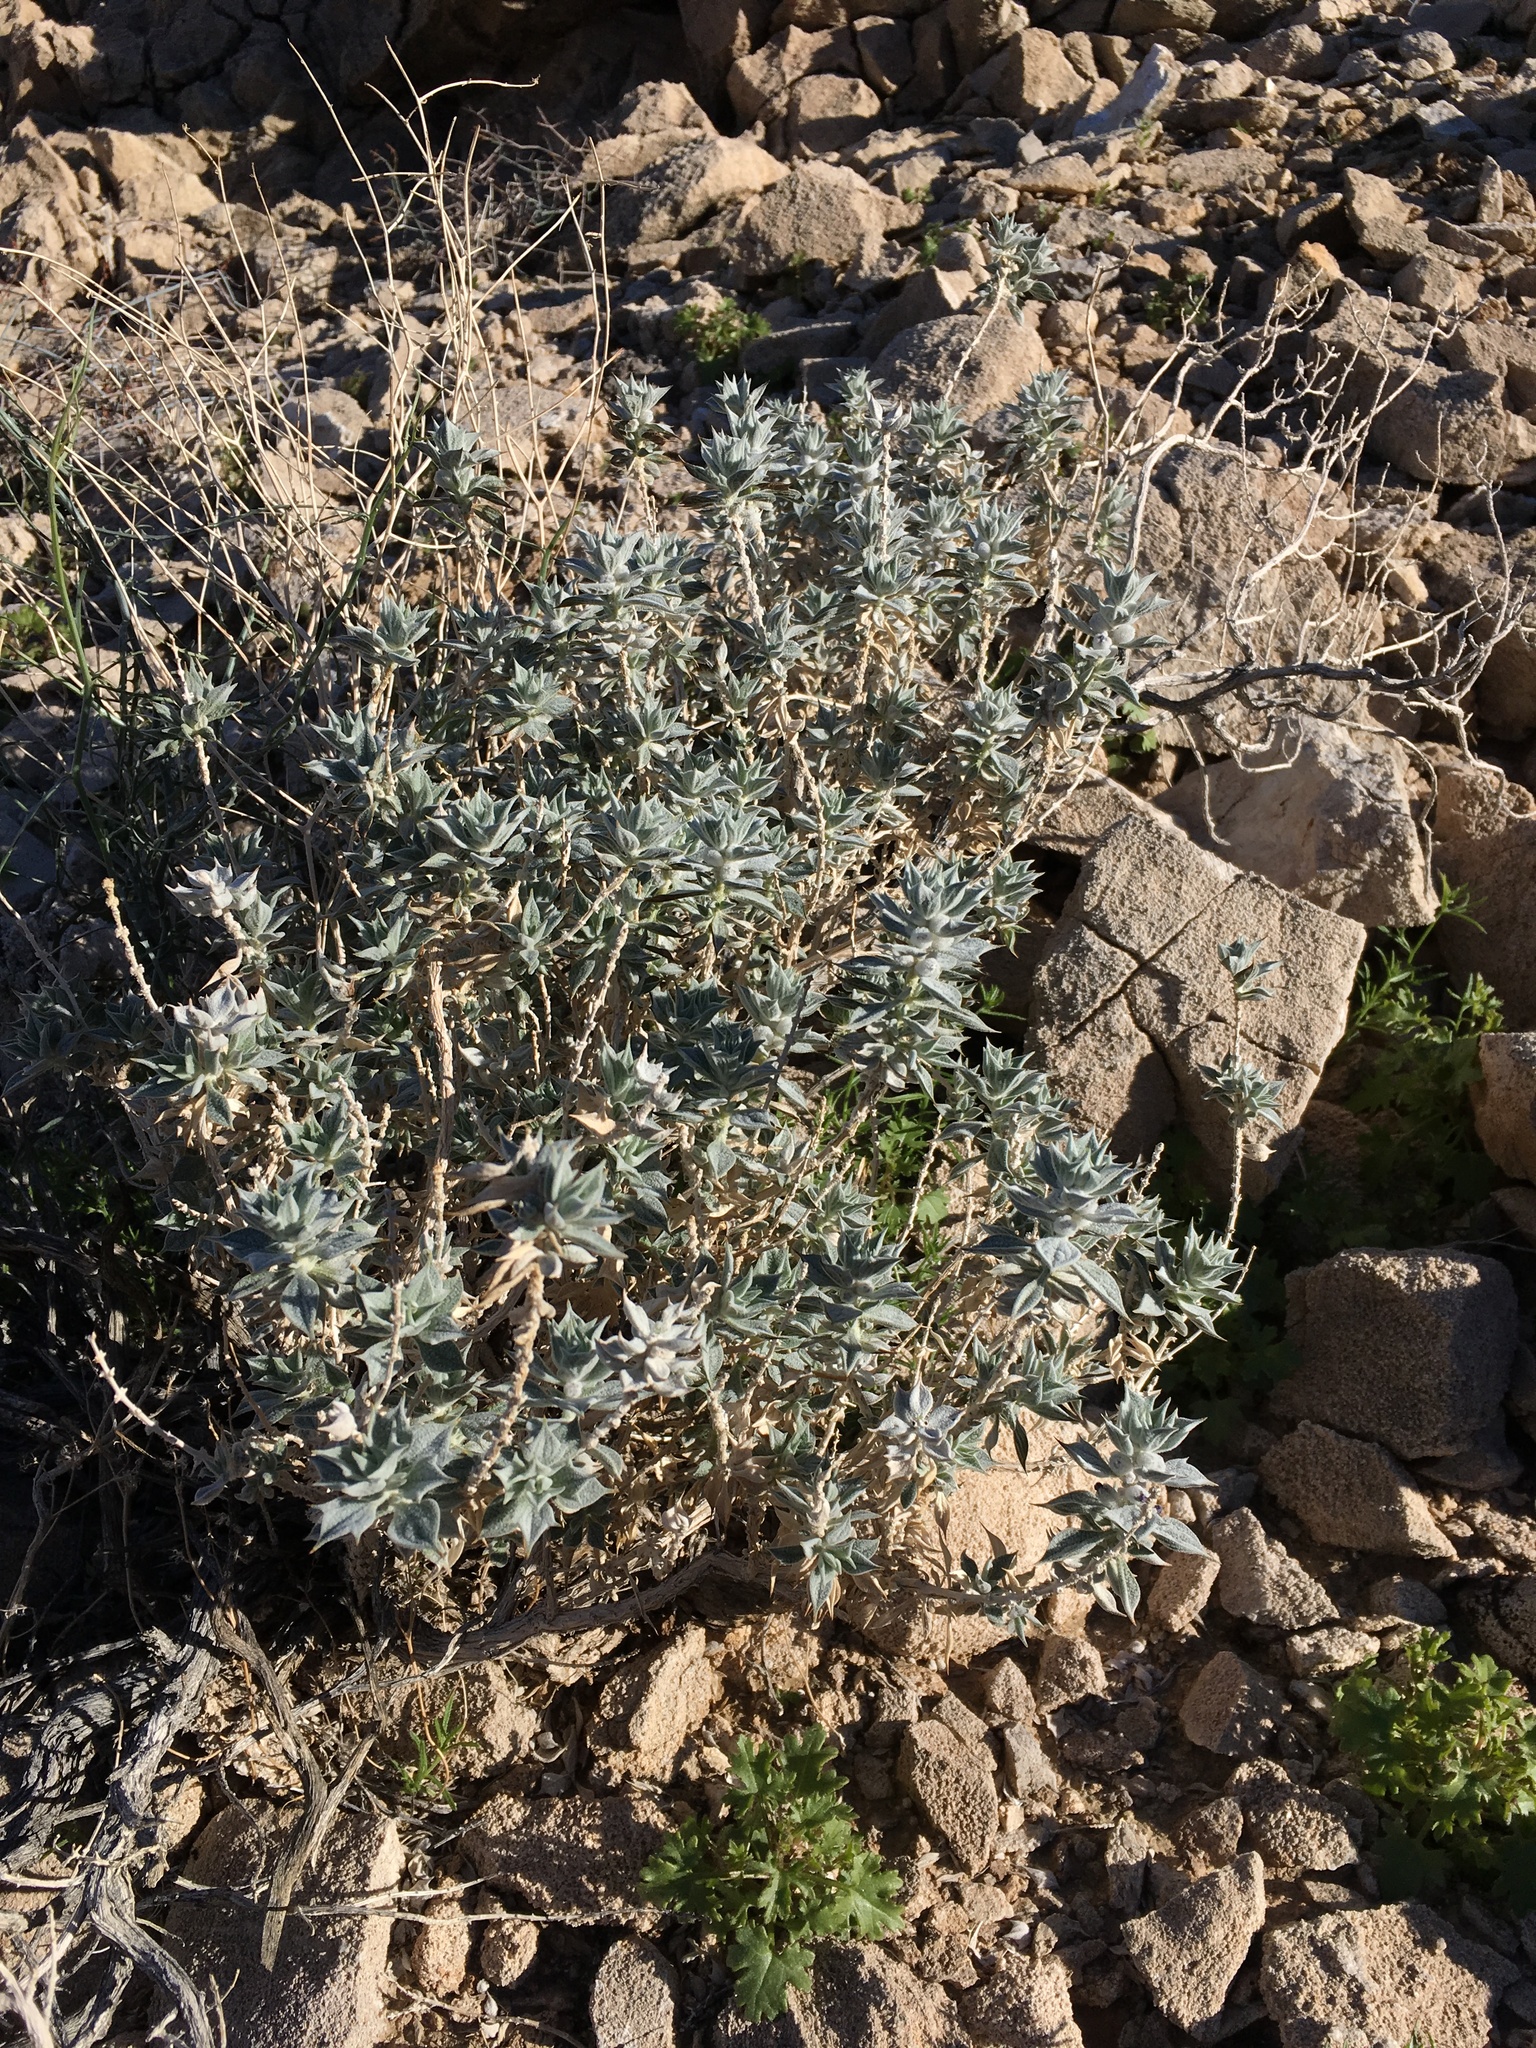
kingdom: Plantae
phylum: Tracheophyta
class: Magnoliopsida
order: Lamiales
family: Lamiaceae
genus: Salvia
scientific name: Salvia funerea
